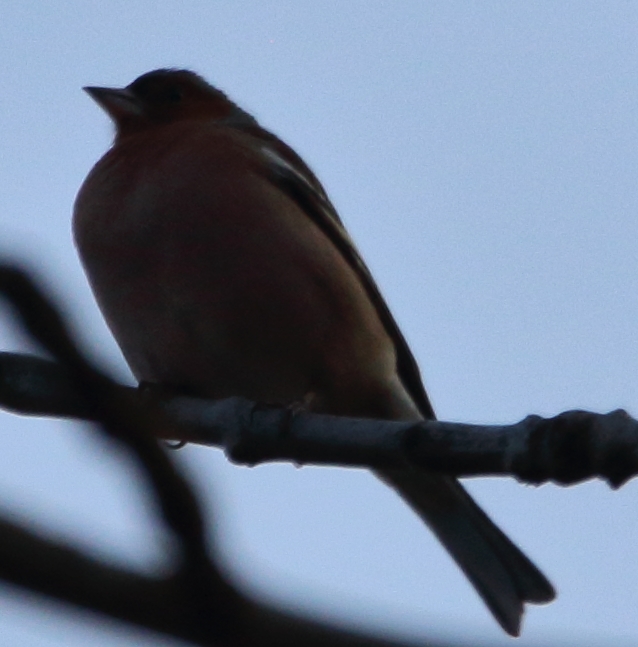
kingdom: Animalia
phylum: Chordata
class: Aves
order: Passeriformes
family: Fringillidae
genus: Fringilla
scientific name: Fringilla coelebs
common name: Common chaffinch
